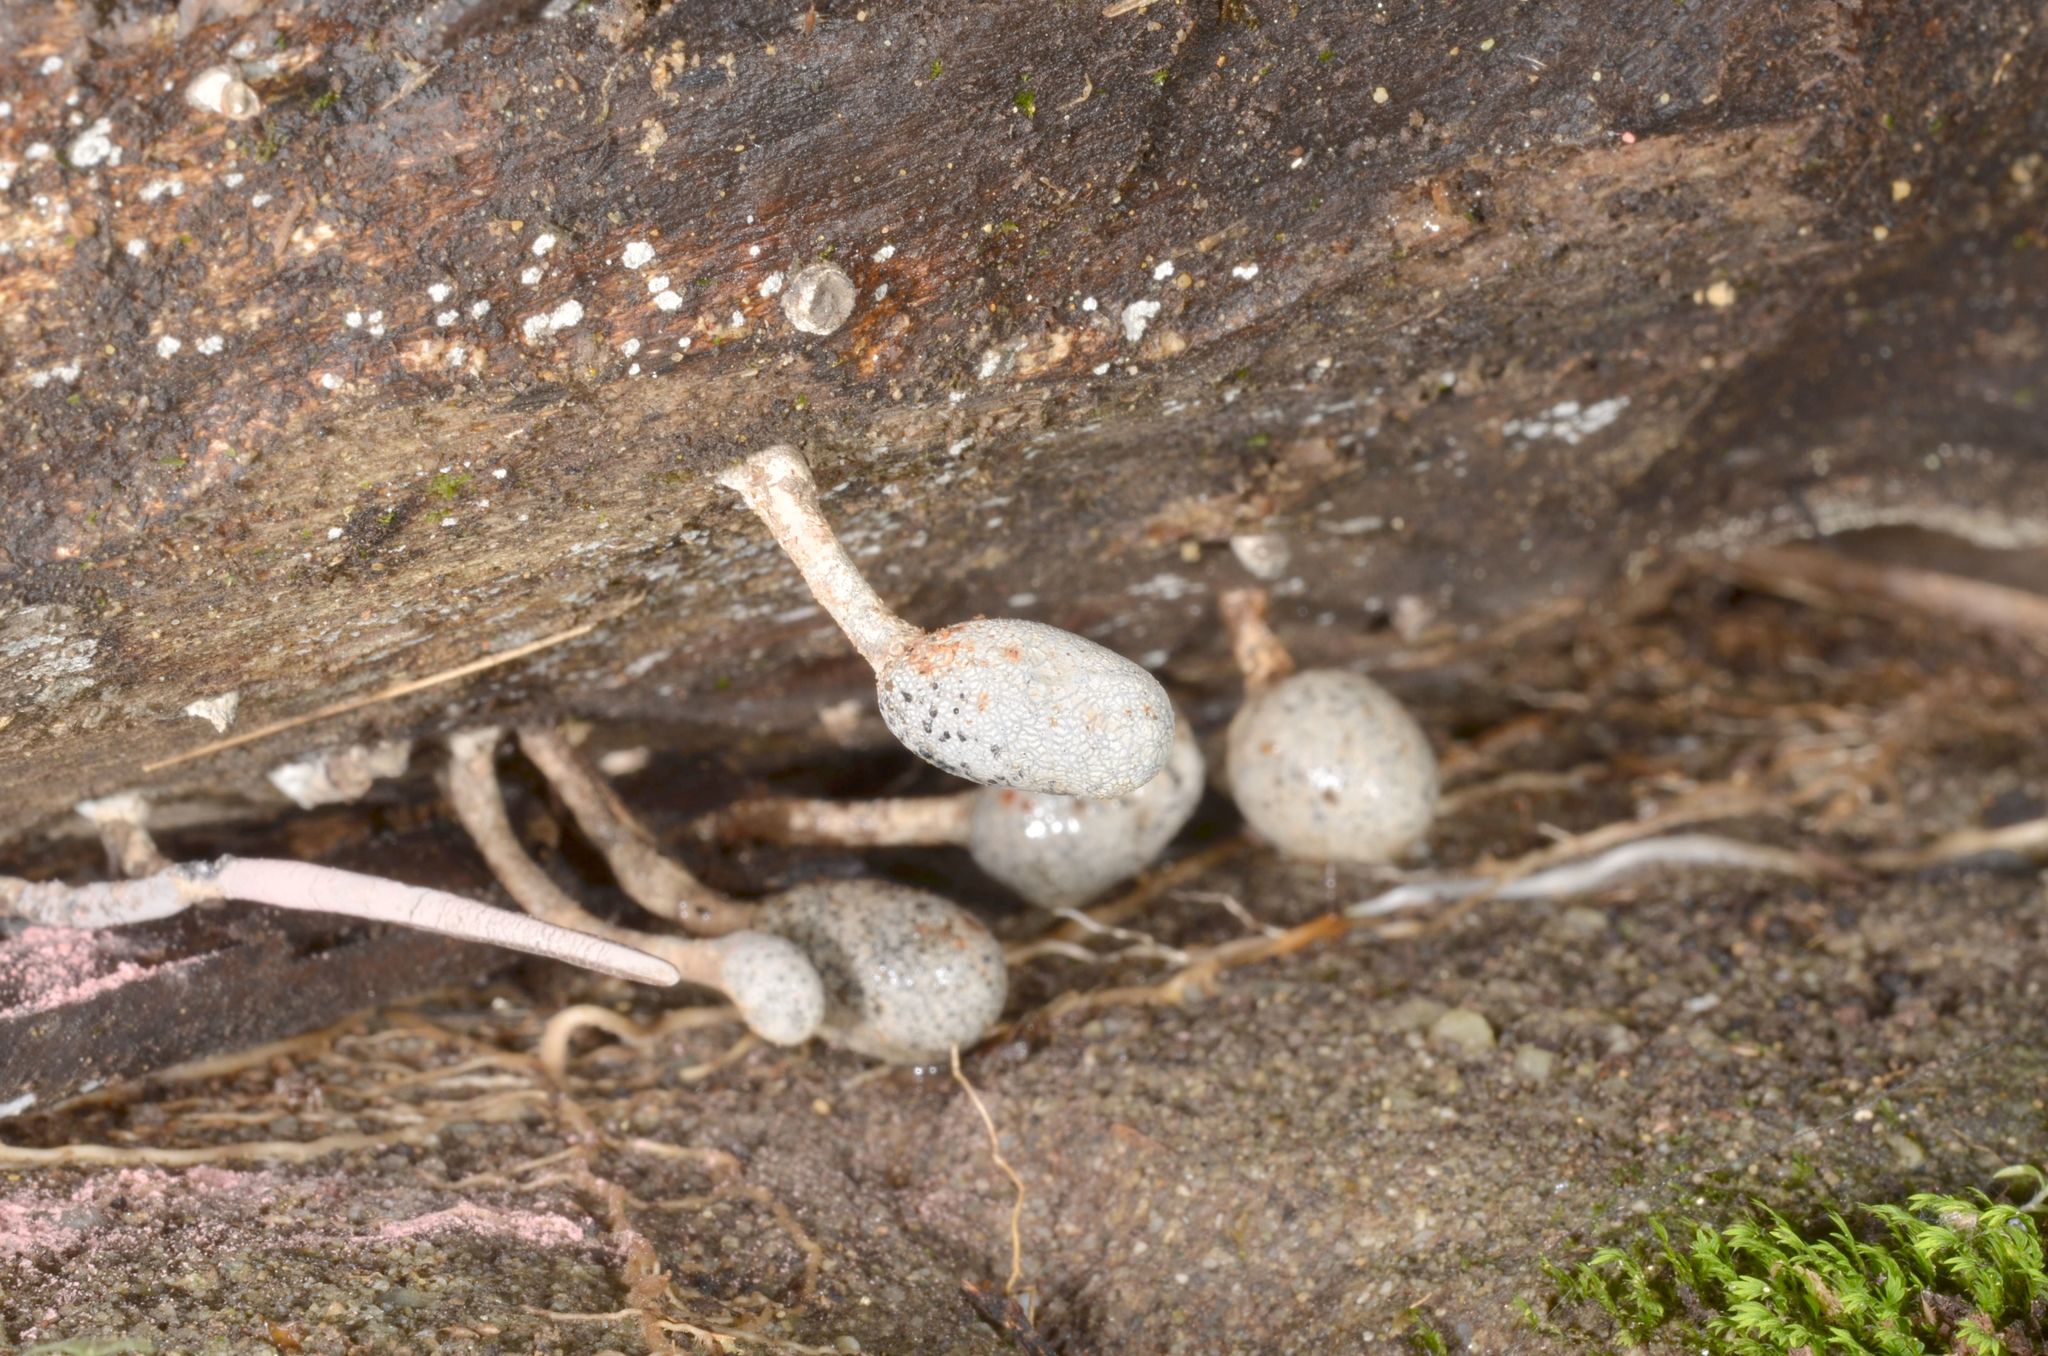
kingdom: Fungi
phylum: Ascomycota
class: Sordariomycetes
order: Xylariales
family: Xylariaceae
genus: Xylaria
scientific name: Xylaria fockei
